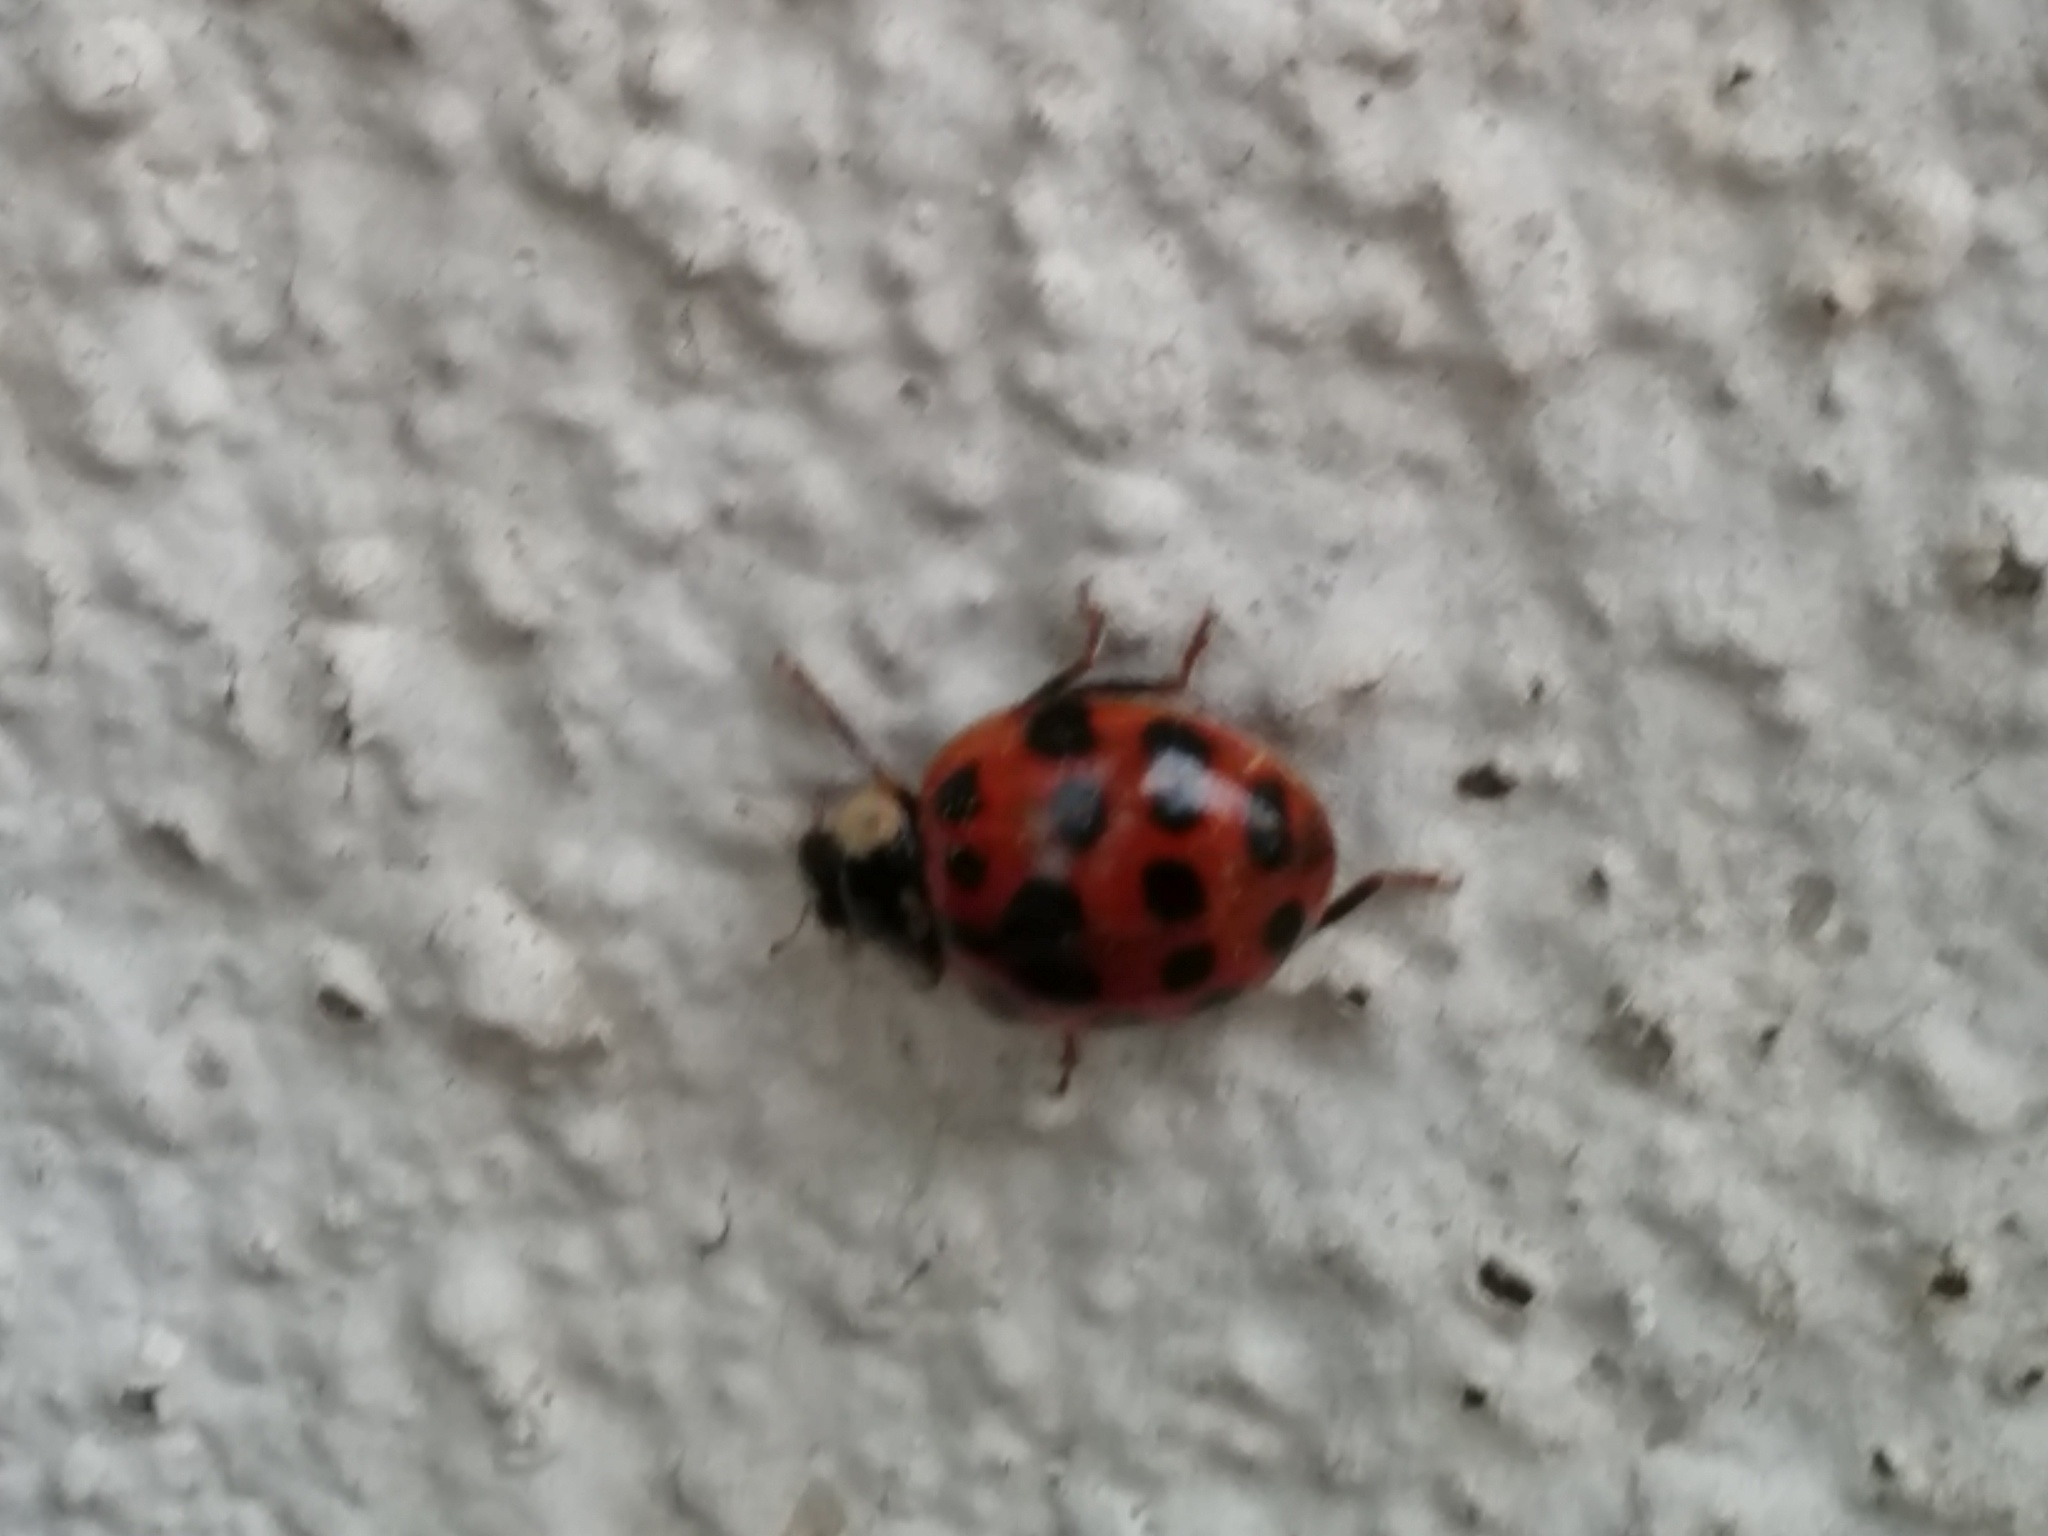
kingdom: Animalia
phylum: Arthropoda
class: Insecta
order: Coleoptera
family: Coccinellidae
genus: Harmonia
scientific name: Harmonia axyridis
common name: Harlequin ladybird
